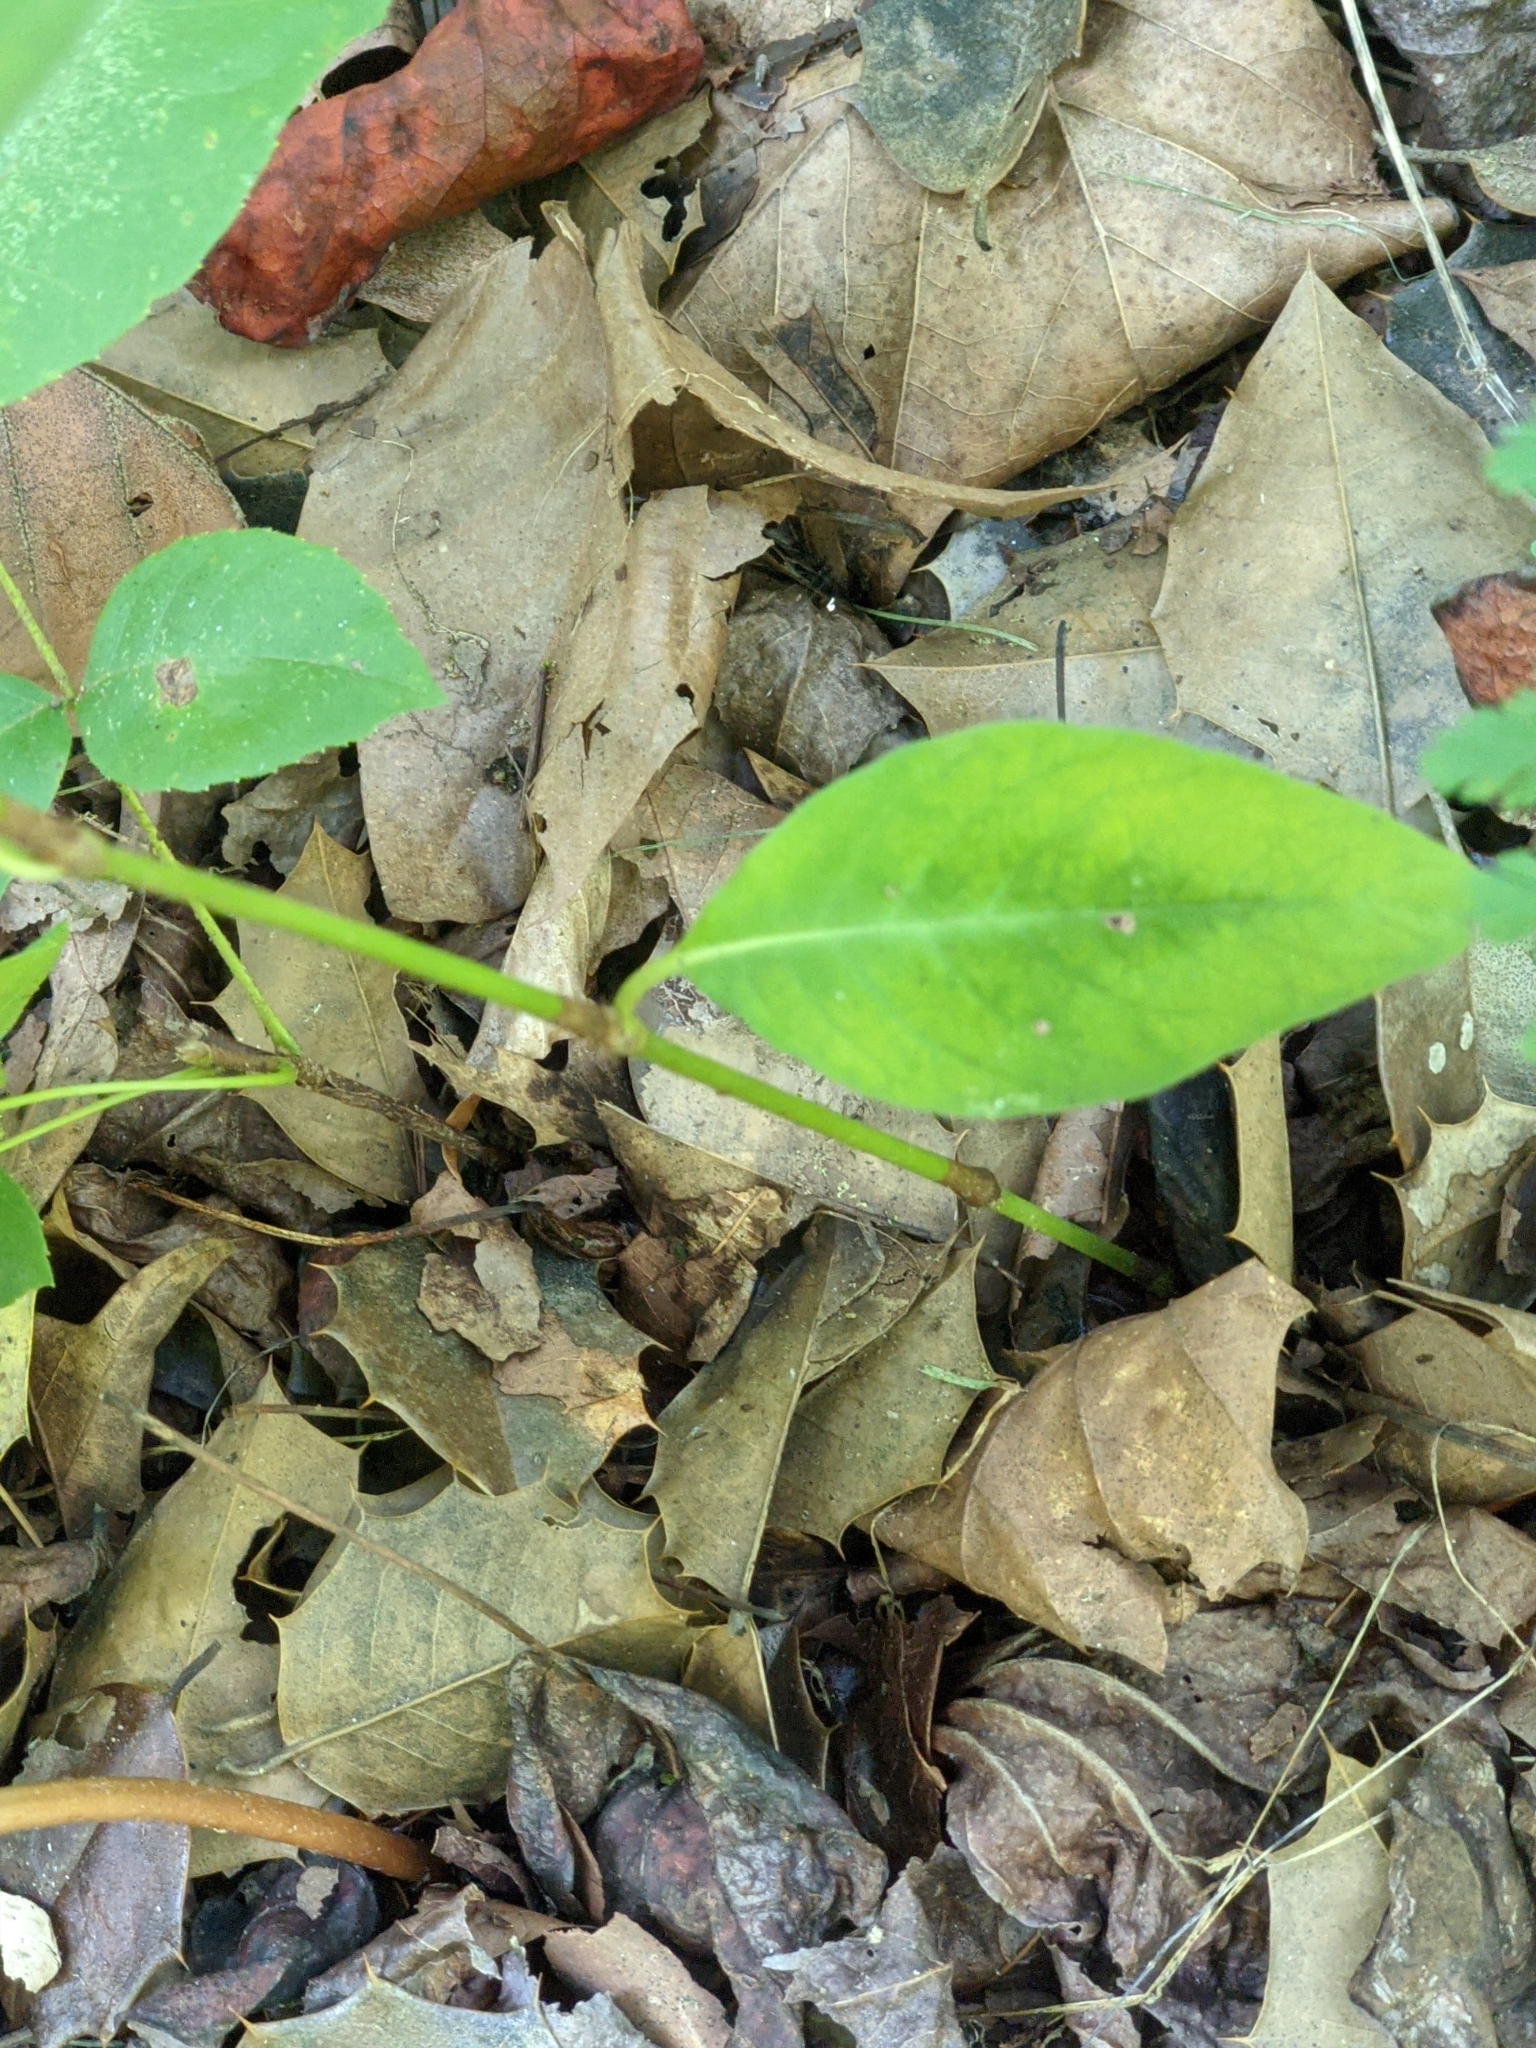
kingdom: Plantae
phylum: Tracheophyta
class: Magnoliopsida
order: Caryophyllales
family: Polygonaceae
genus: Persicaria
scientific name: Persicaria virginiana
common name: Jumpseed
